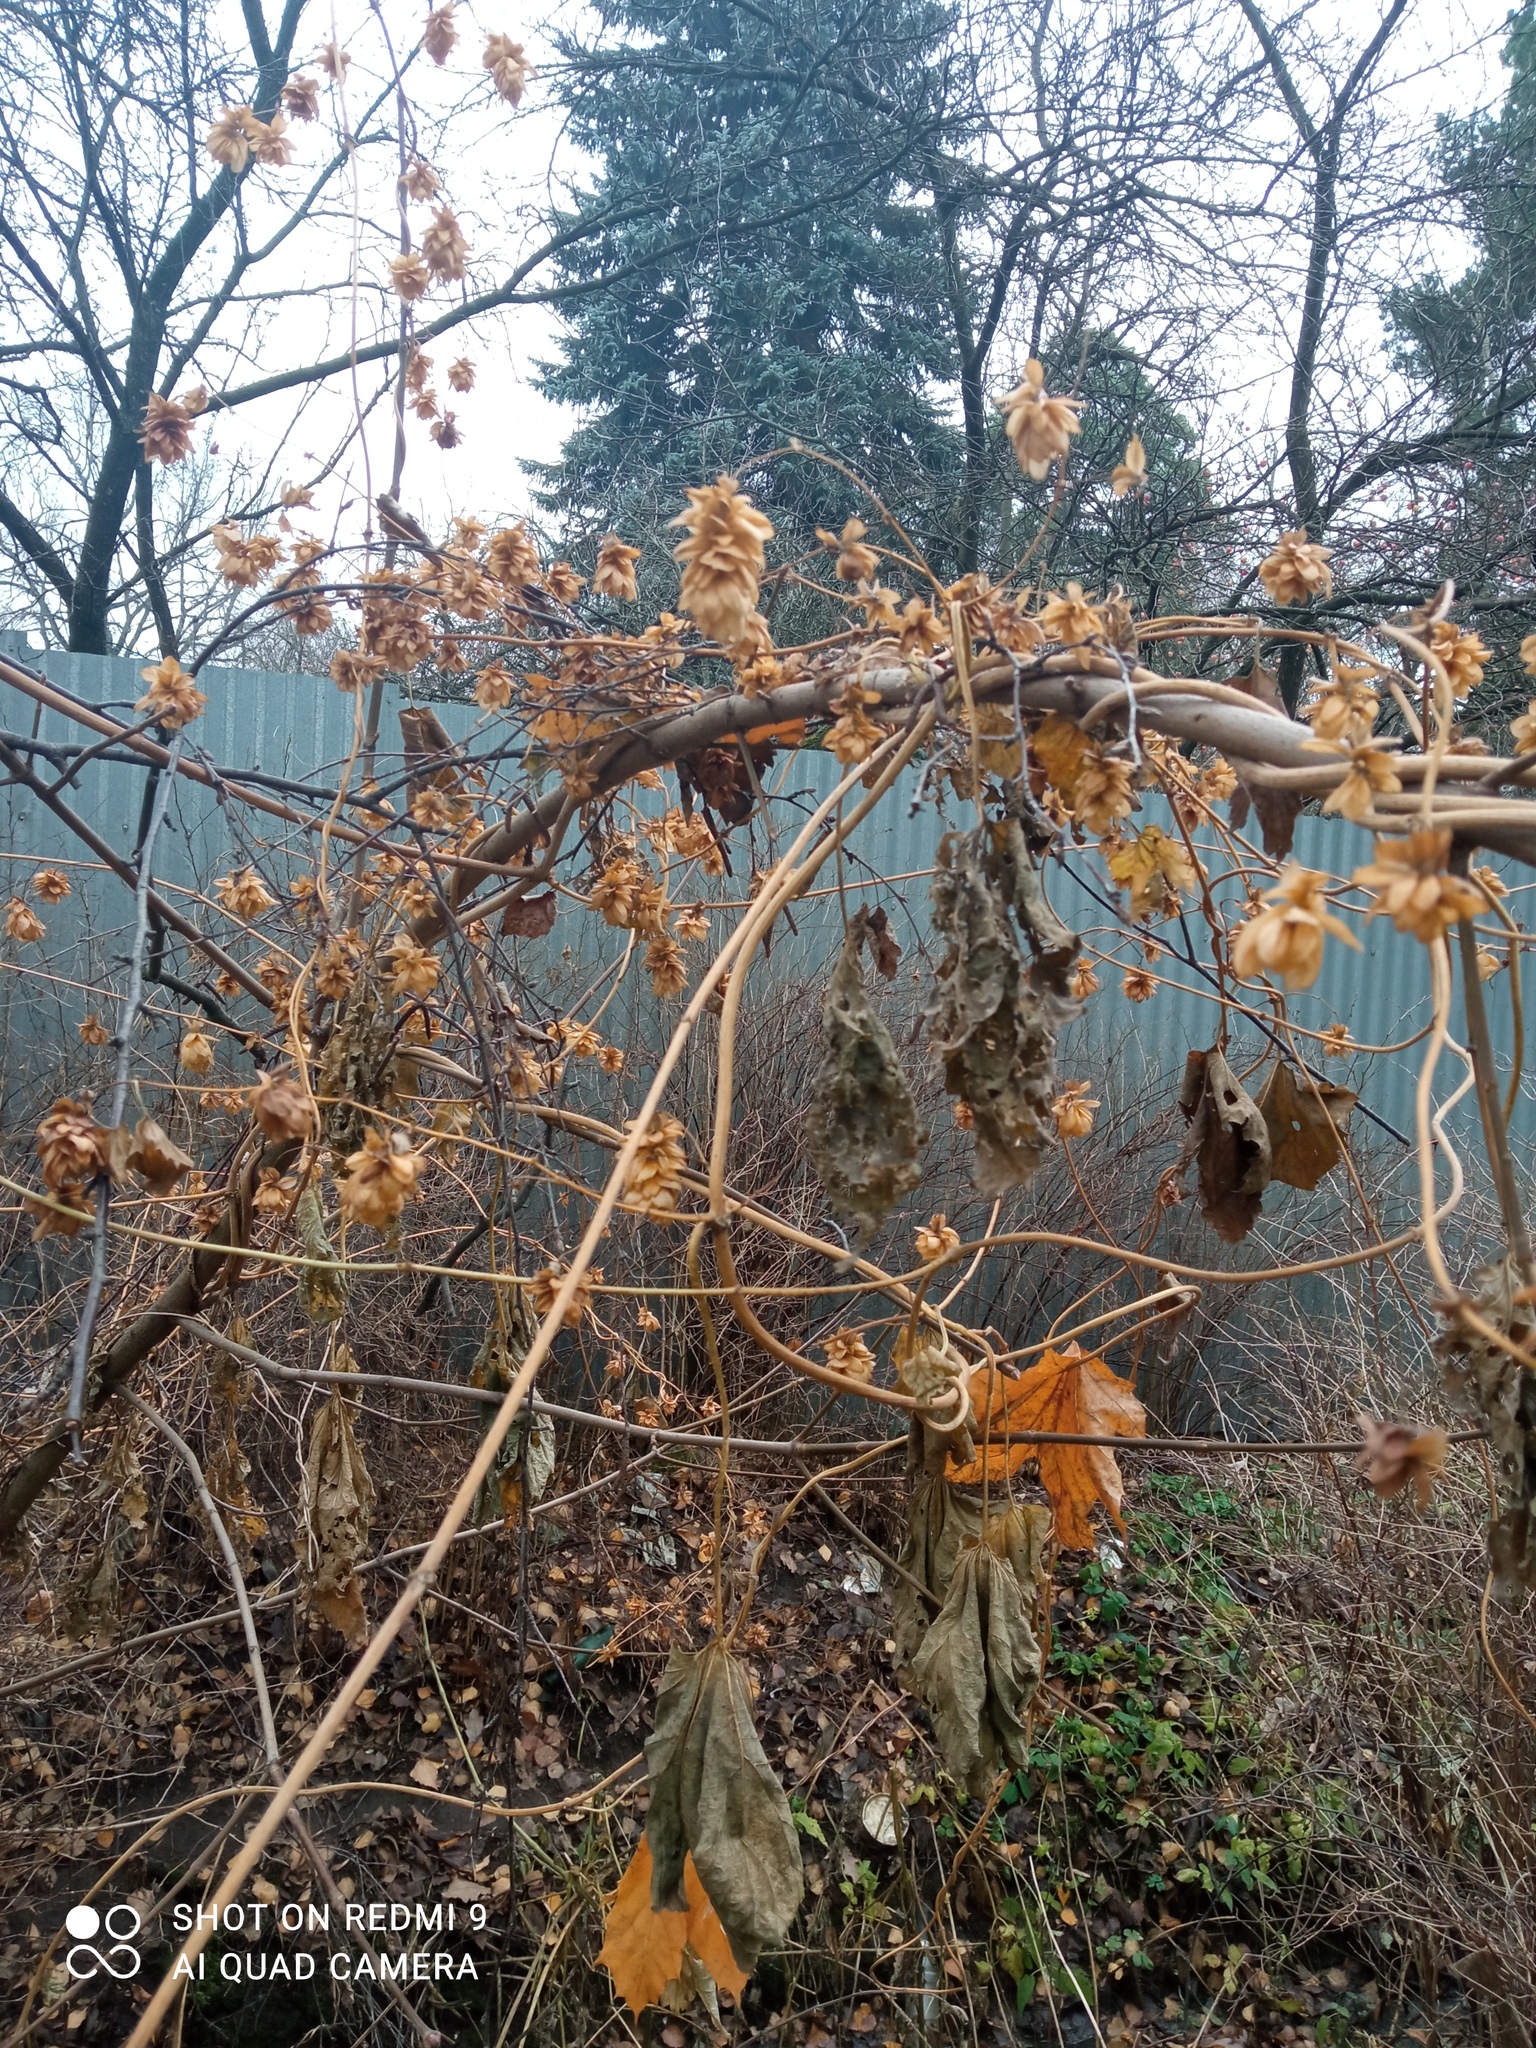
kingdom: Plantae
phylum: Tracheophyta
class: Magnoliopsida
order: Rosales
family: Cannabaceae
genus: Humulus
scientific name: Humulus lupulus
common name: Hop
